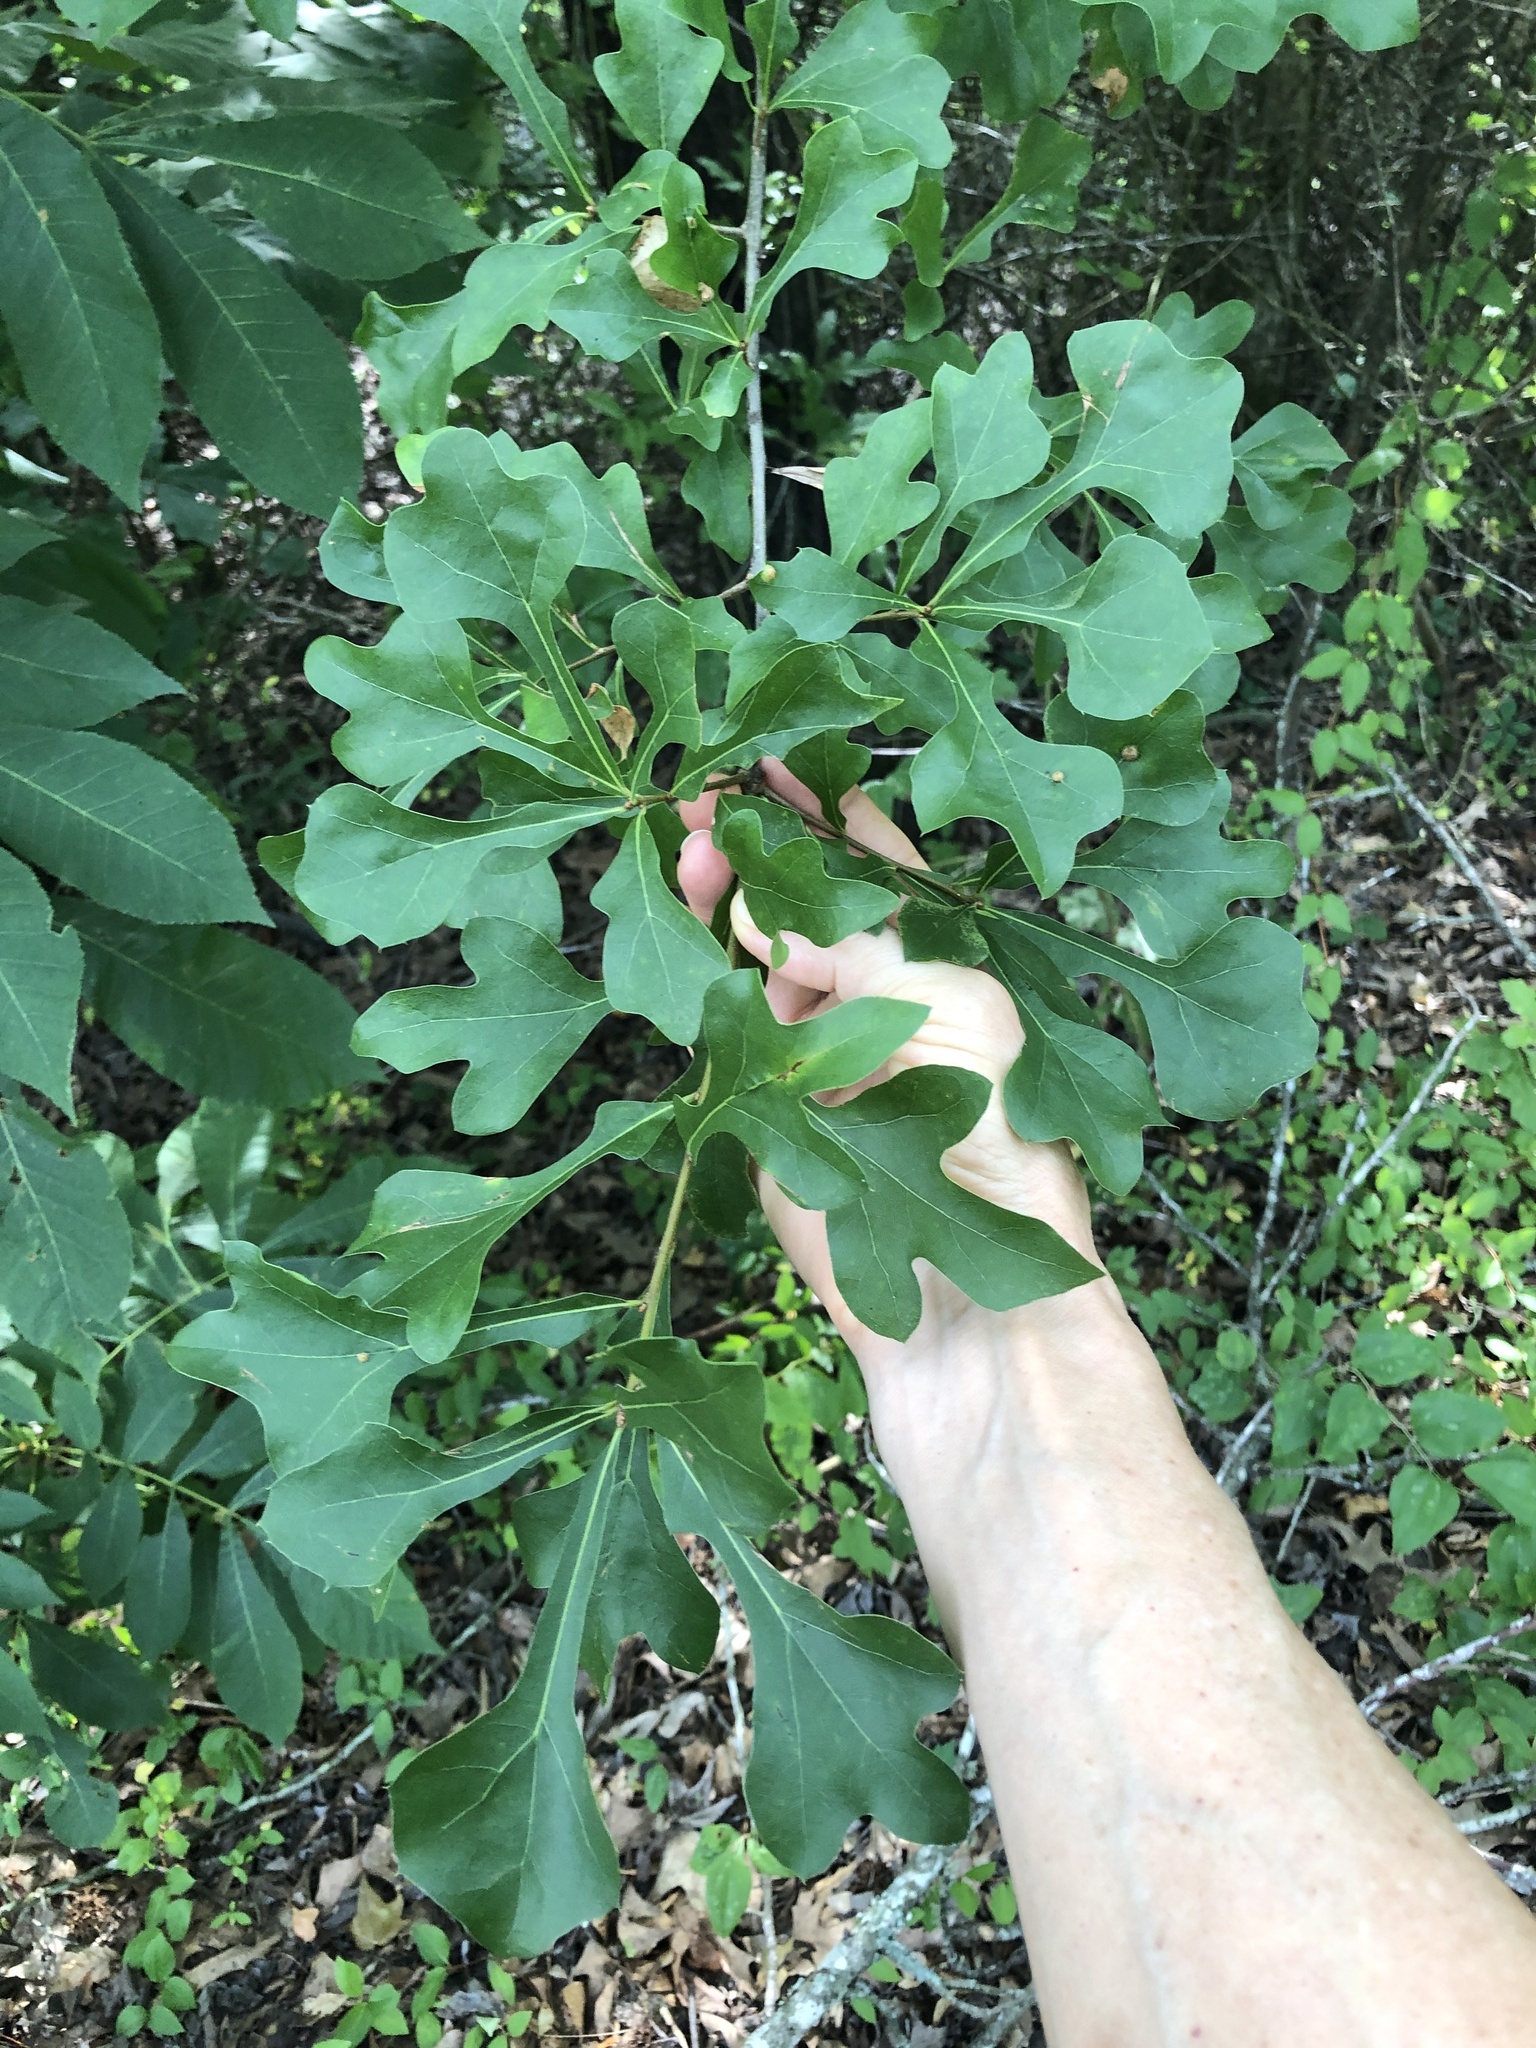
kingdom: Plantae
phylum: Tracheophyta
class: Magnoliopsida
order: Fagales
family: Fagaceae
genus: Quercus
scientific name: Quercus nigra
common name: Water oak
